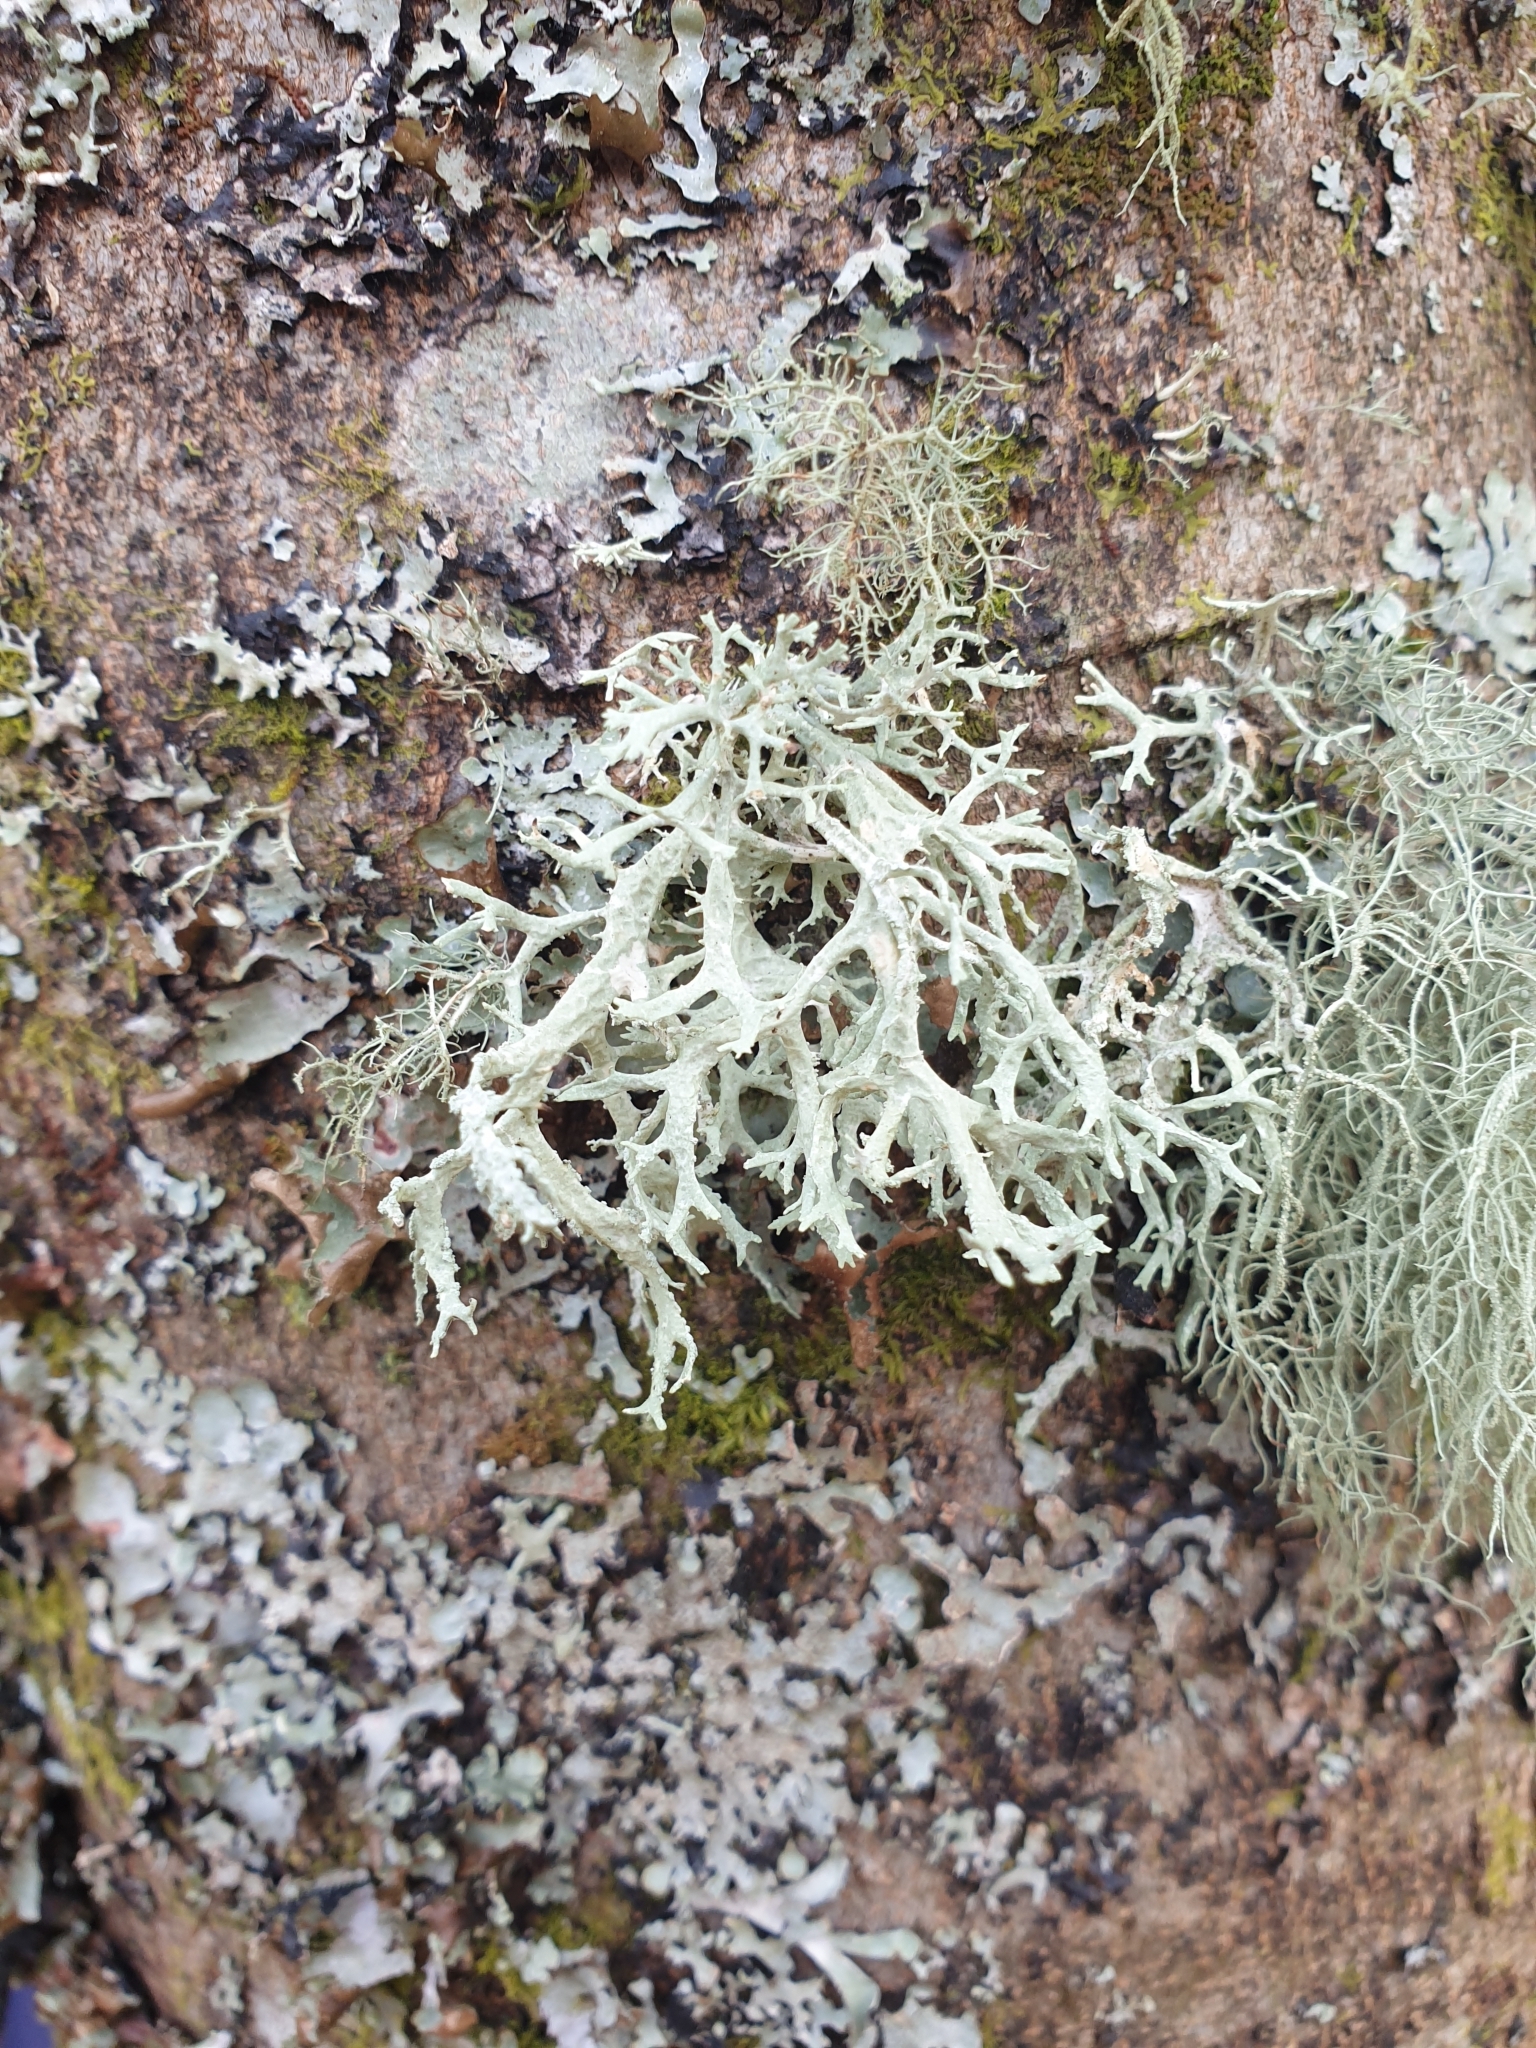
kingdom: Fungi
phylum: Ascomycota
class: Lecanoromycetes
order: Lecanorales
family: Parmeliaceae
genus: Evernia
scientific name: Evernia prunastri
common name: Oak moss
